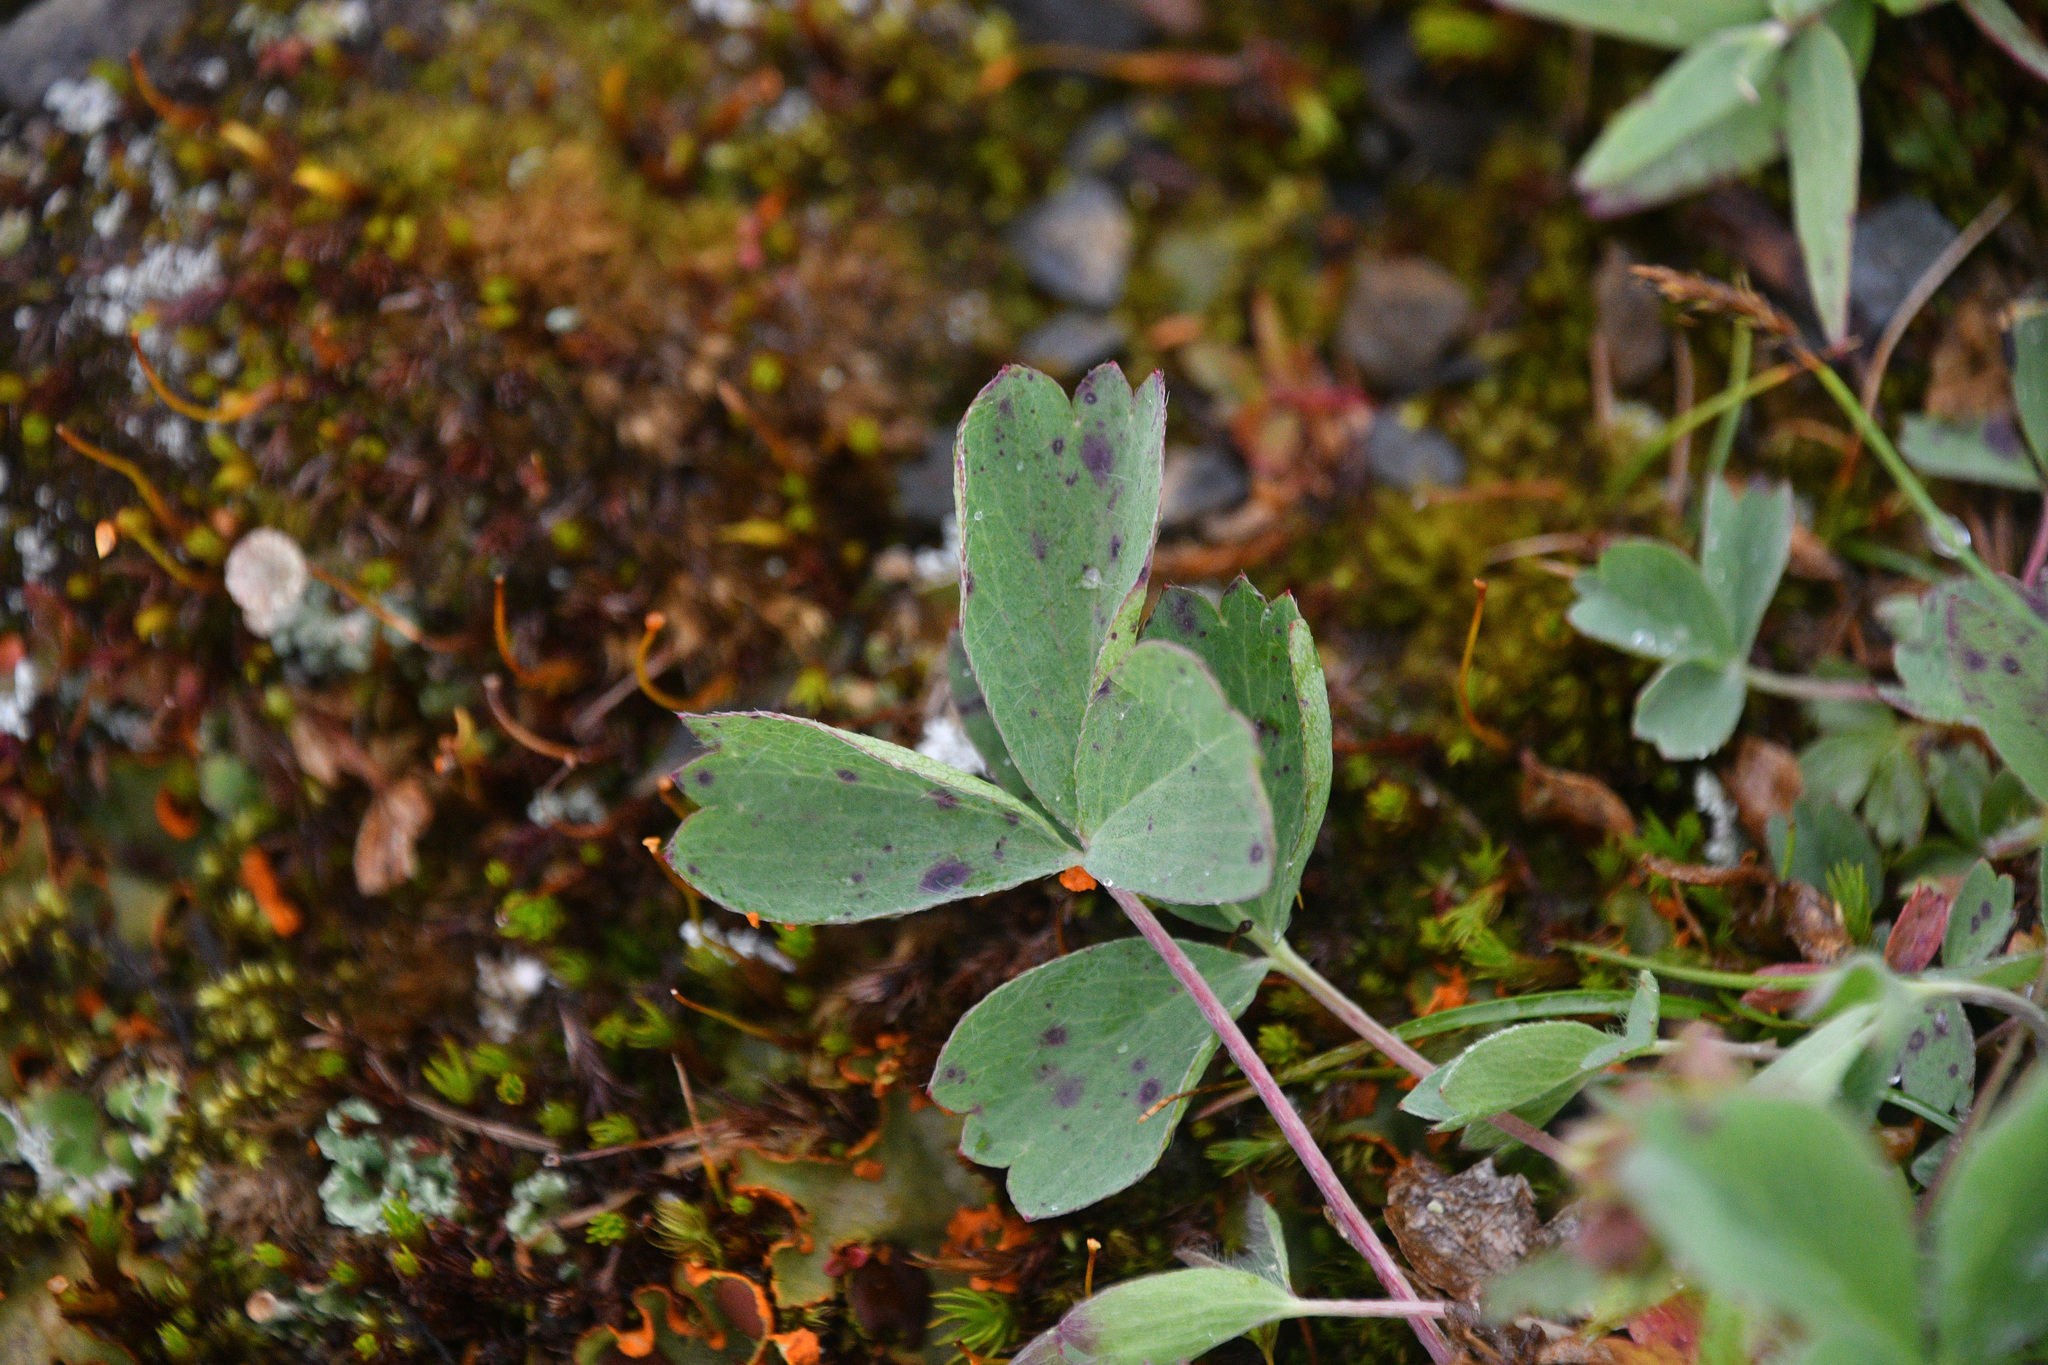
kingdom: Plantae
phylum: Tracheophyta
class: Magnoliopsida
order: Rosales
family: Rosaceae
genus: Sibbaldia
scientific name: Sibbaldia procumbens
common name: Creeping sibbaldia
